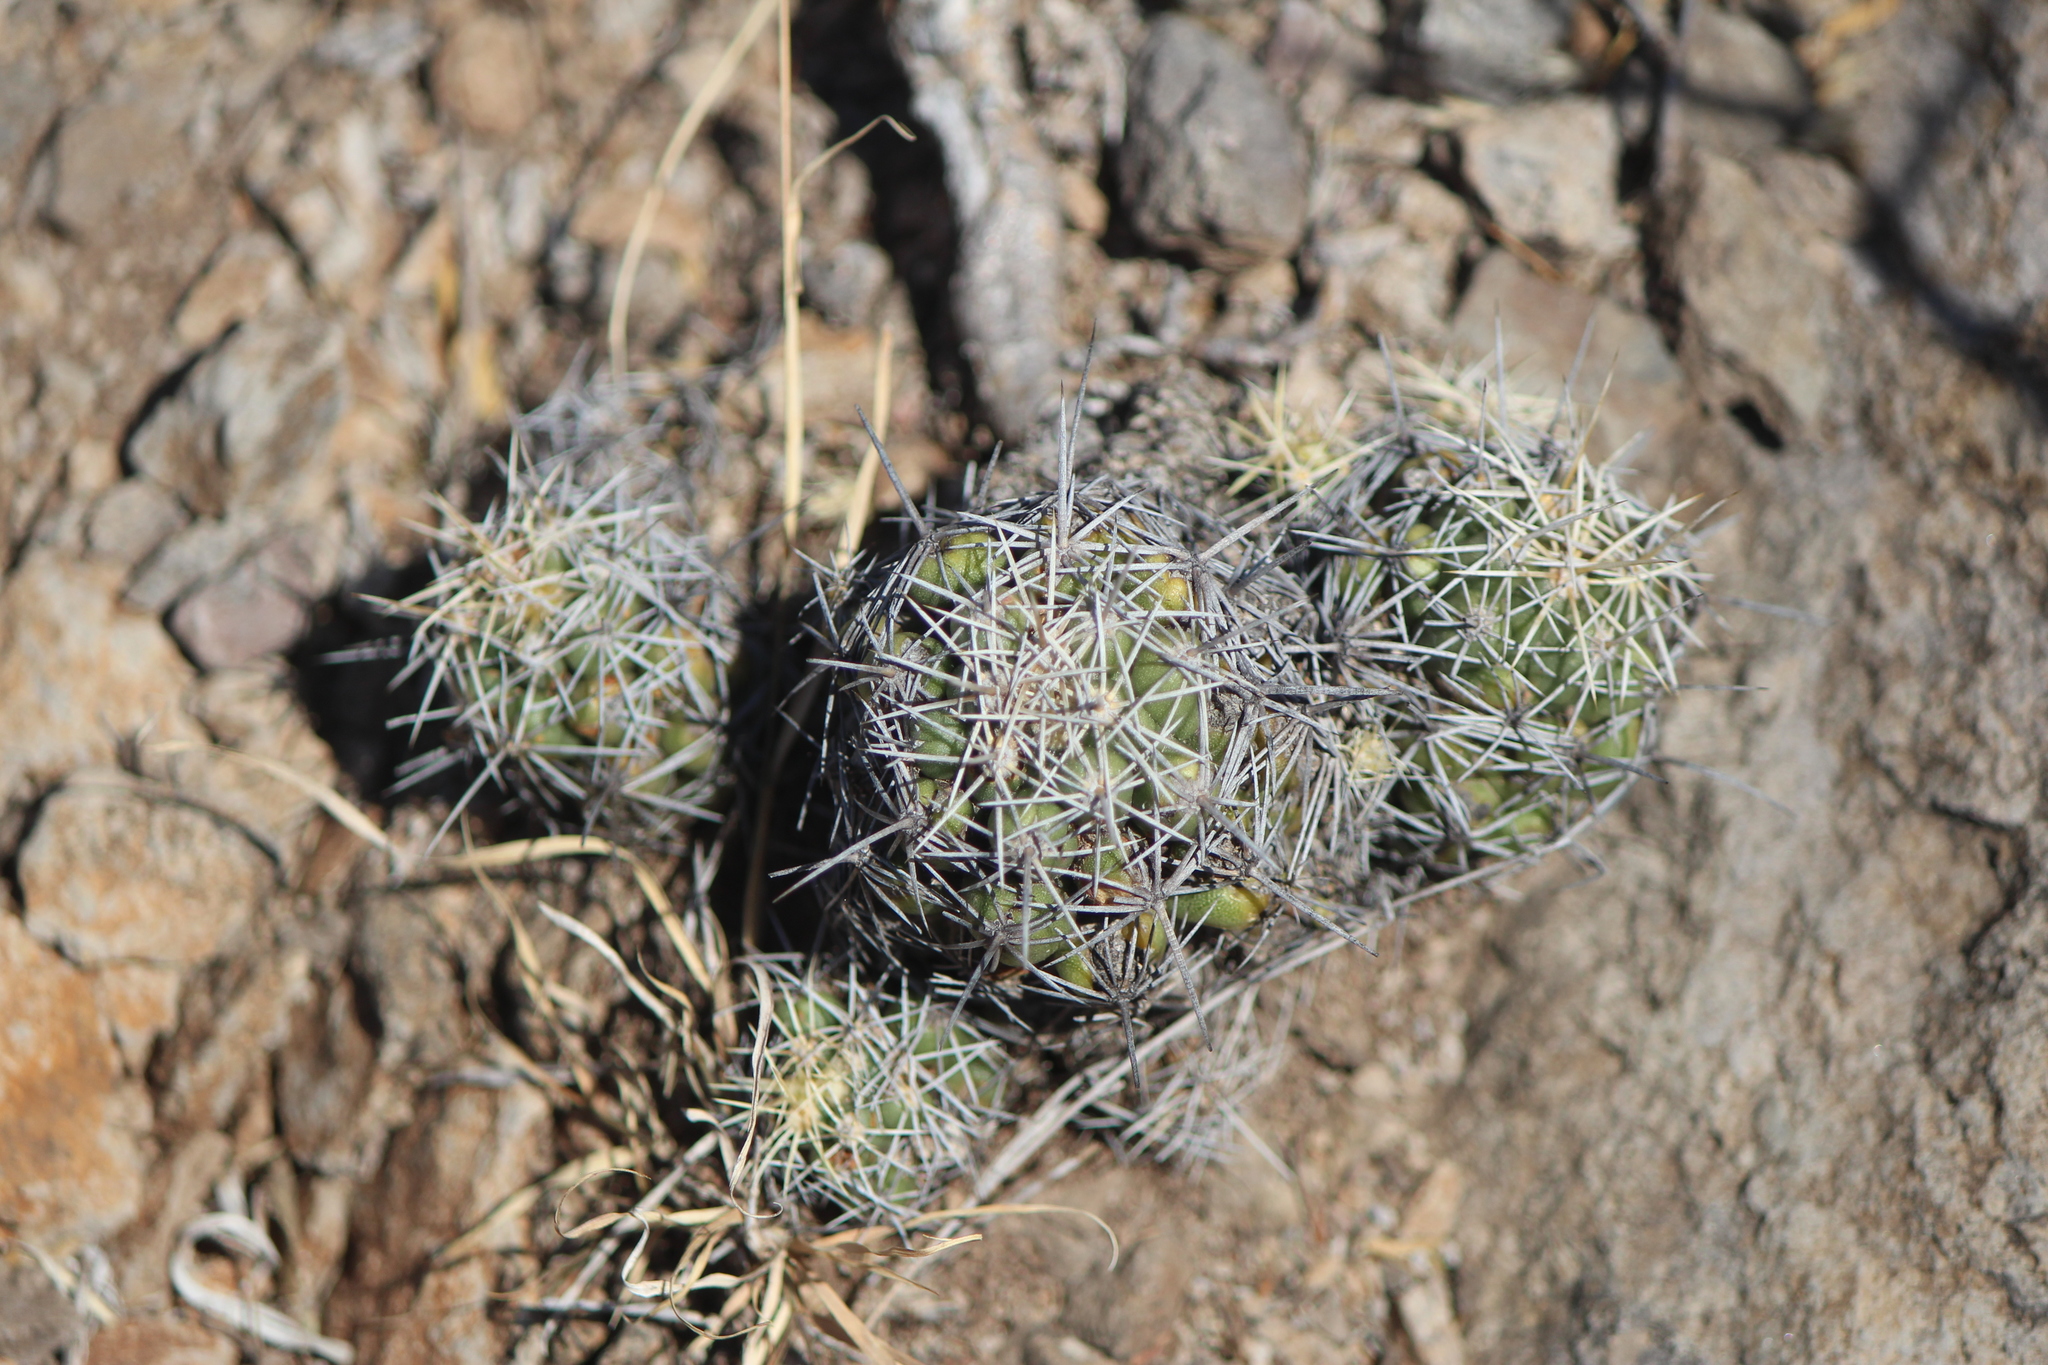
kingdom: Plantae
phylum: Tracheophyta
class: Magnoliopsida
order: Caryophyllales
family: Cactaceae
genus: Thelocactus
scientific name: Thelocactus leucacanthus
